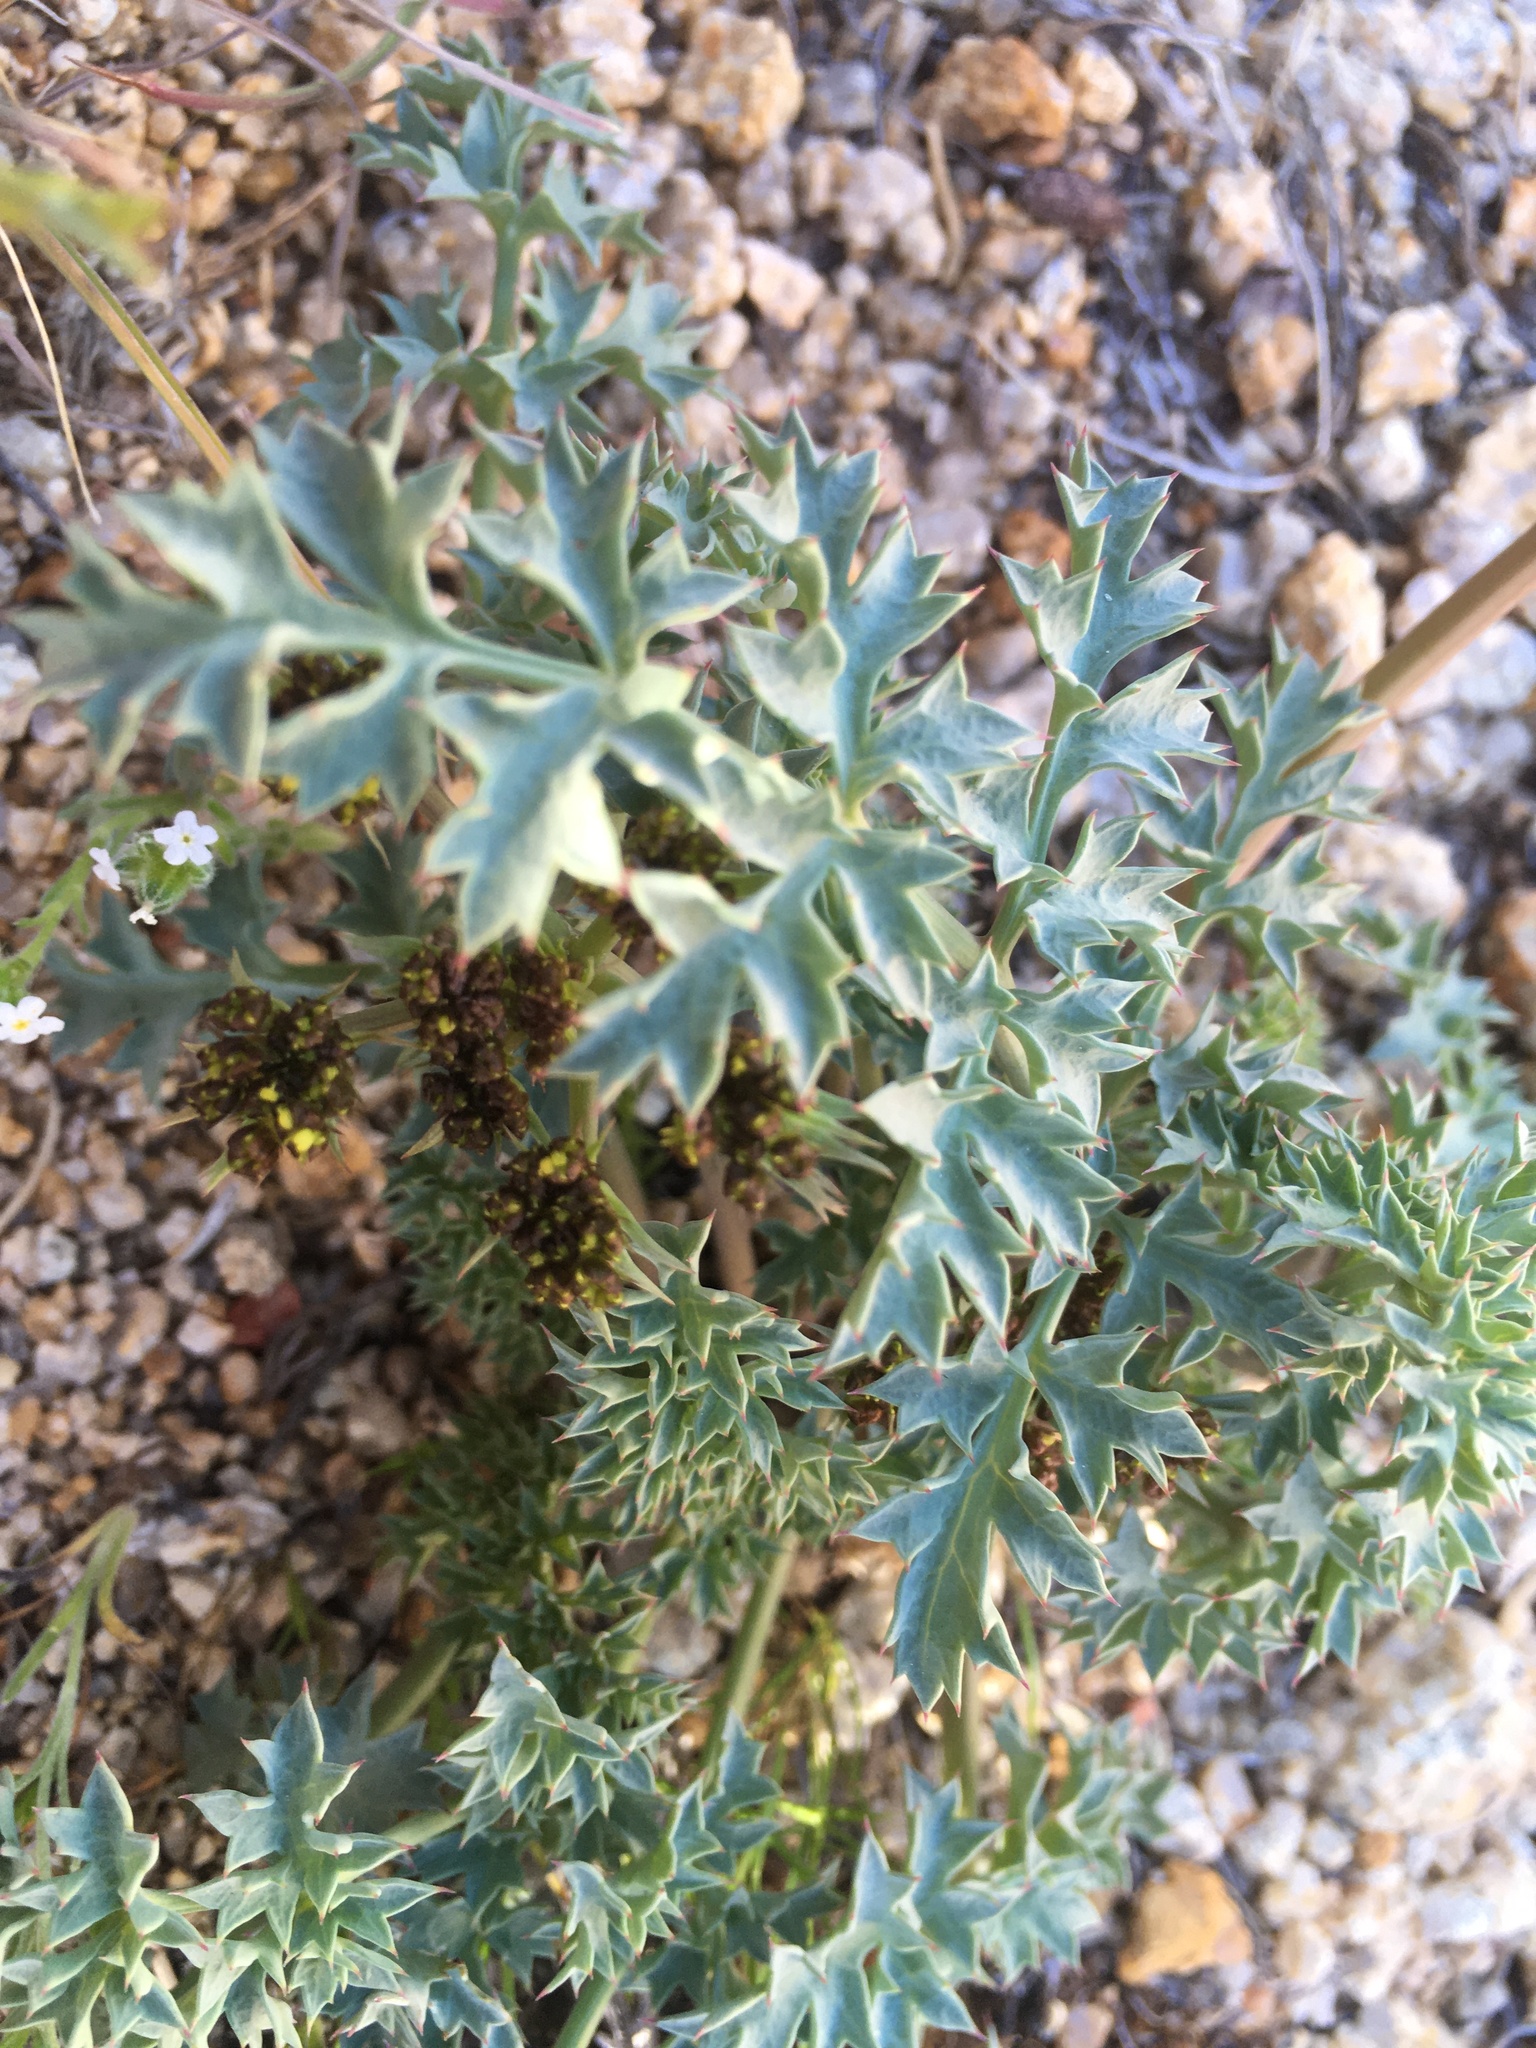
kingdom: Plantae
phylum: Tracheophyta
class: Magnoliopsida
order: Apiales
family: Apiaceae
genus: Lomatium
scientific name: Lomatium rigidum
